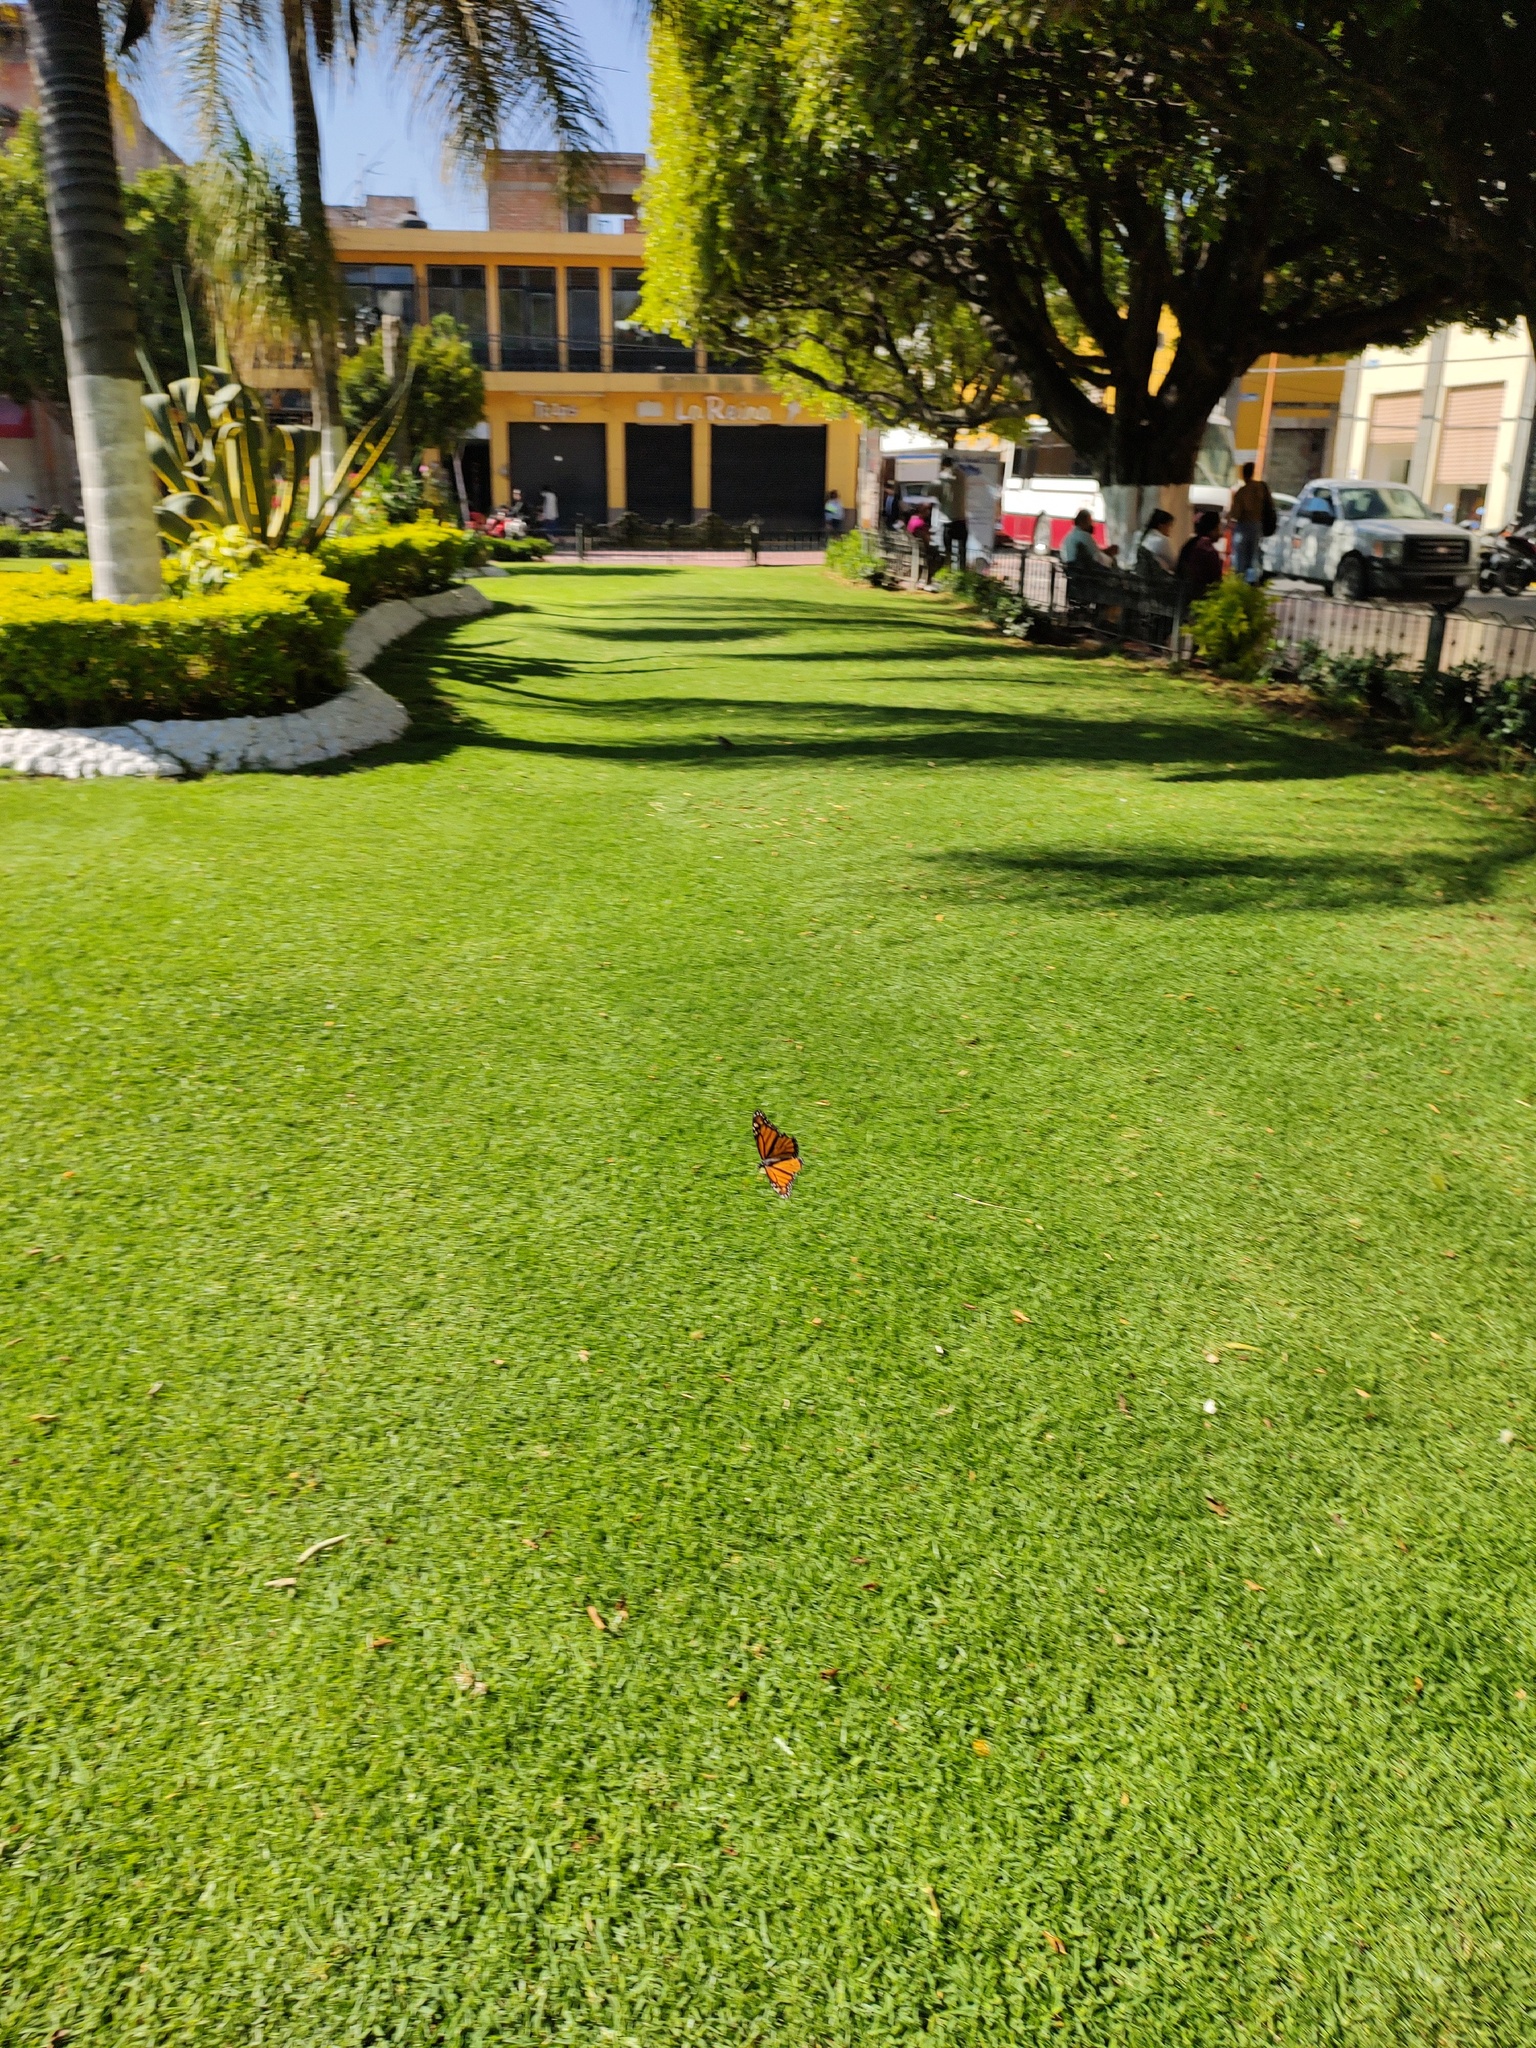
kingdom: Animalia
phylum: Arthropoda
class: Insecta
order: Lepidoptera
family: Nymphalidae
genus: Danaus
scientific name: Danaus plexippus
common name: Monarch
